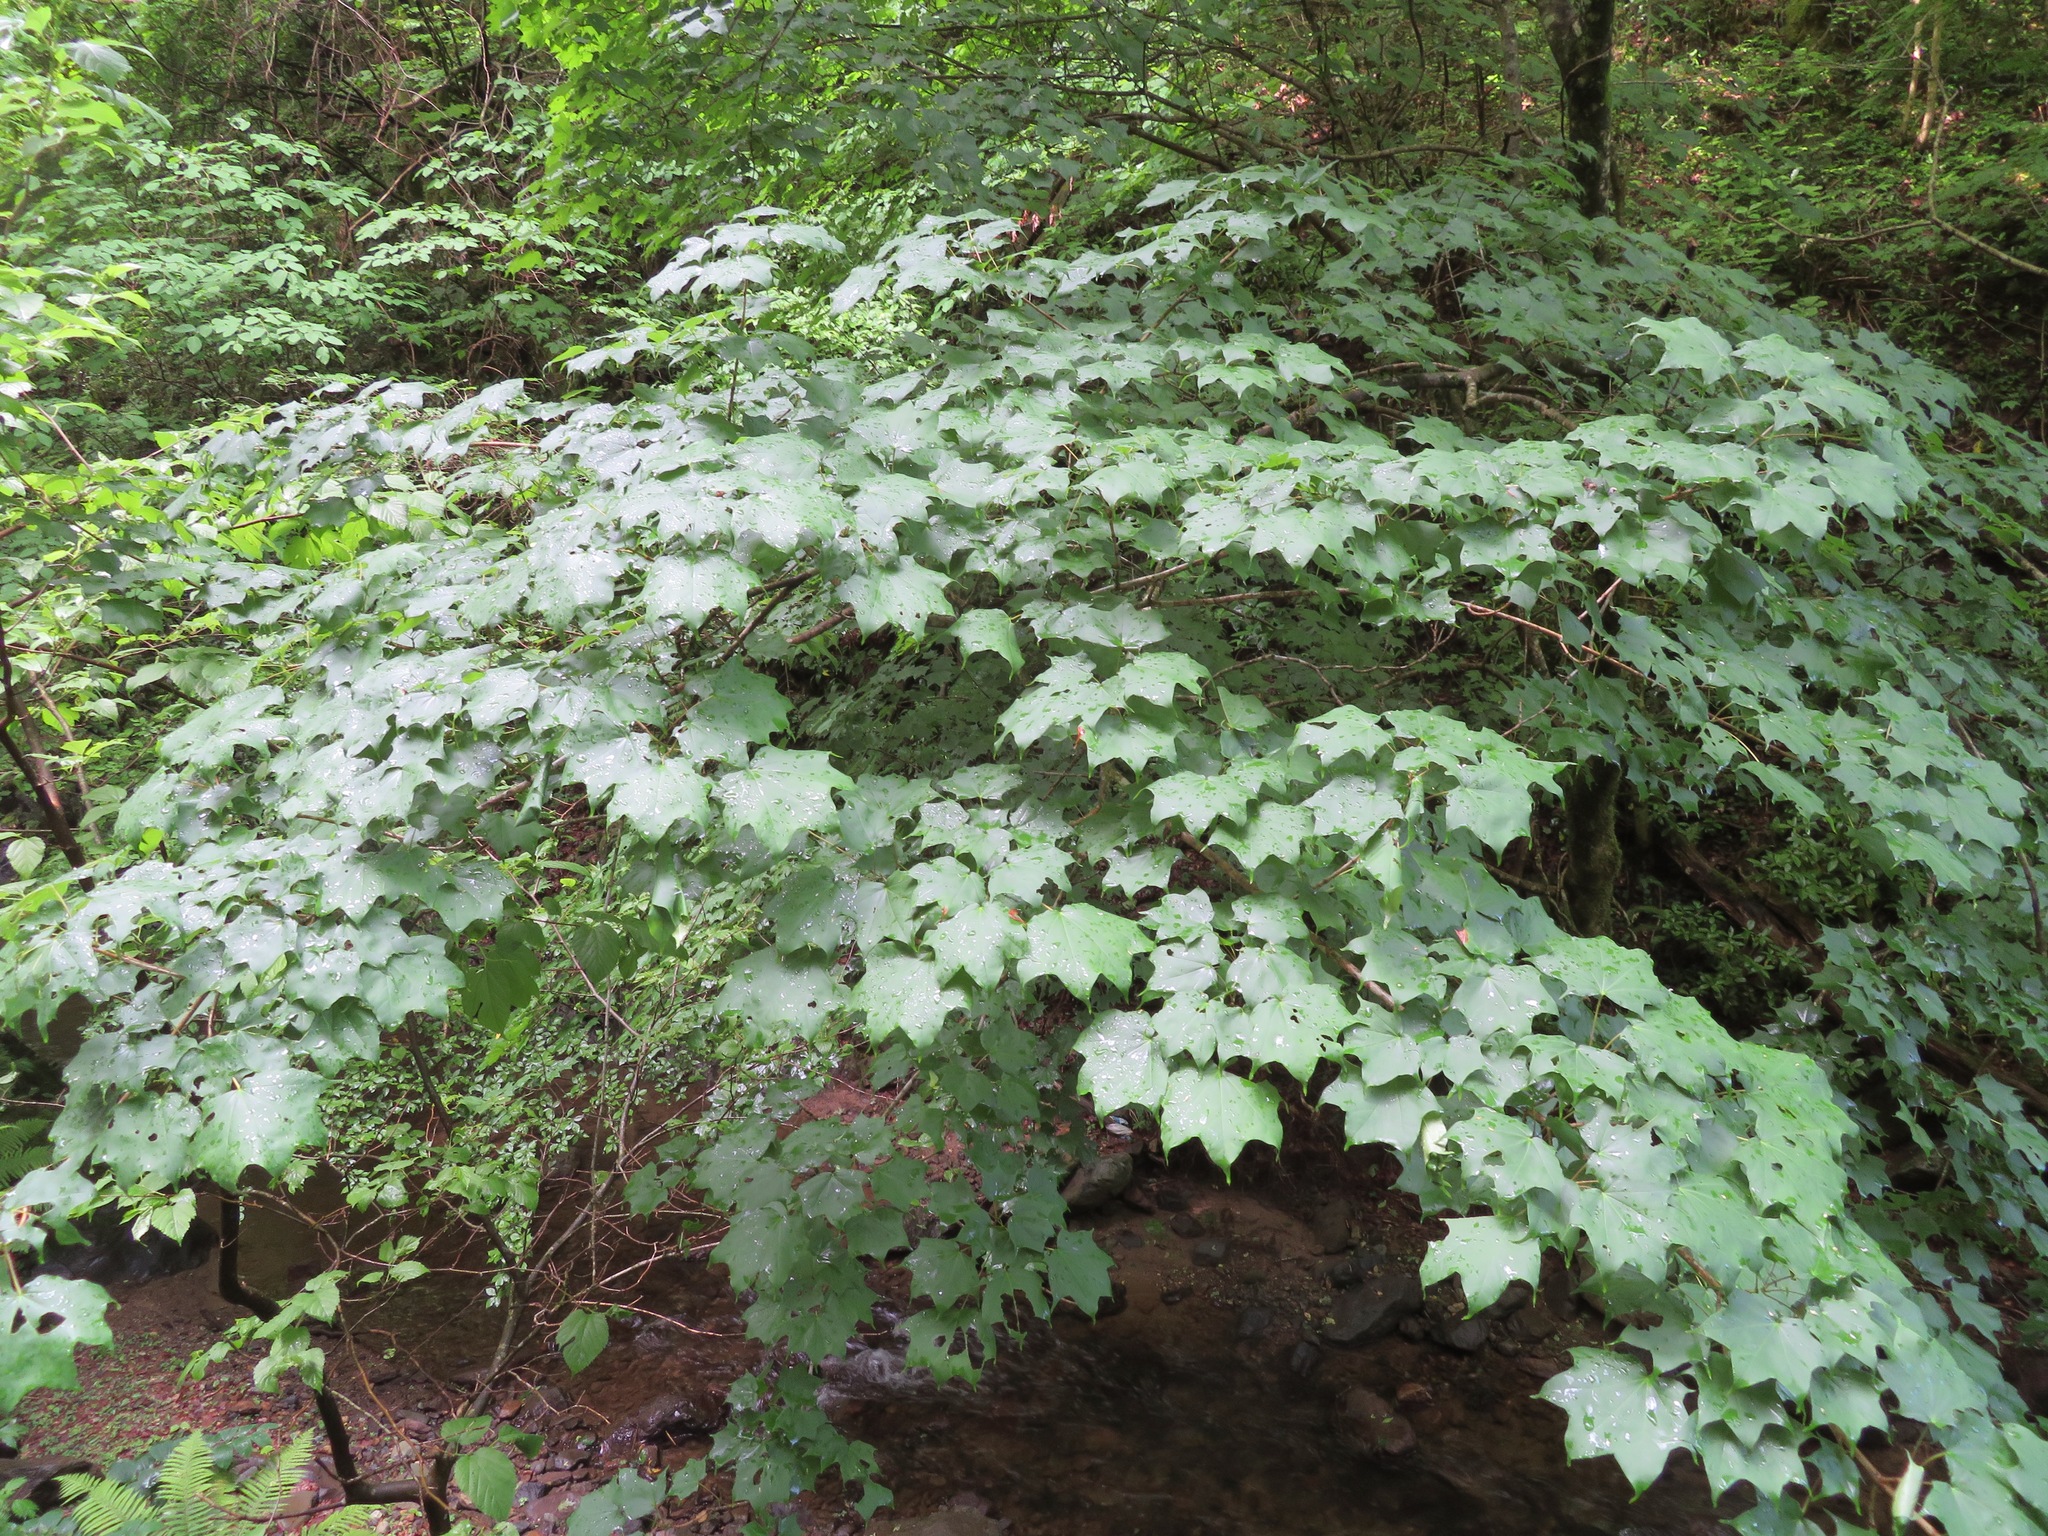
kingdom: Plantae
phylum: Tracheophyta
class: Magnoliopsida
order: Sapindales
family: Sapindaceae
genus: Acer
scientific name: Acer pictum
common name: The painted maple
